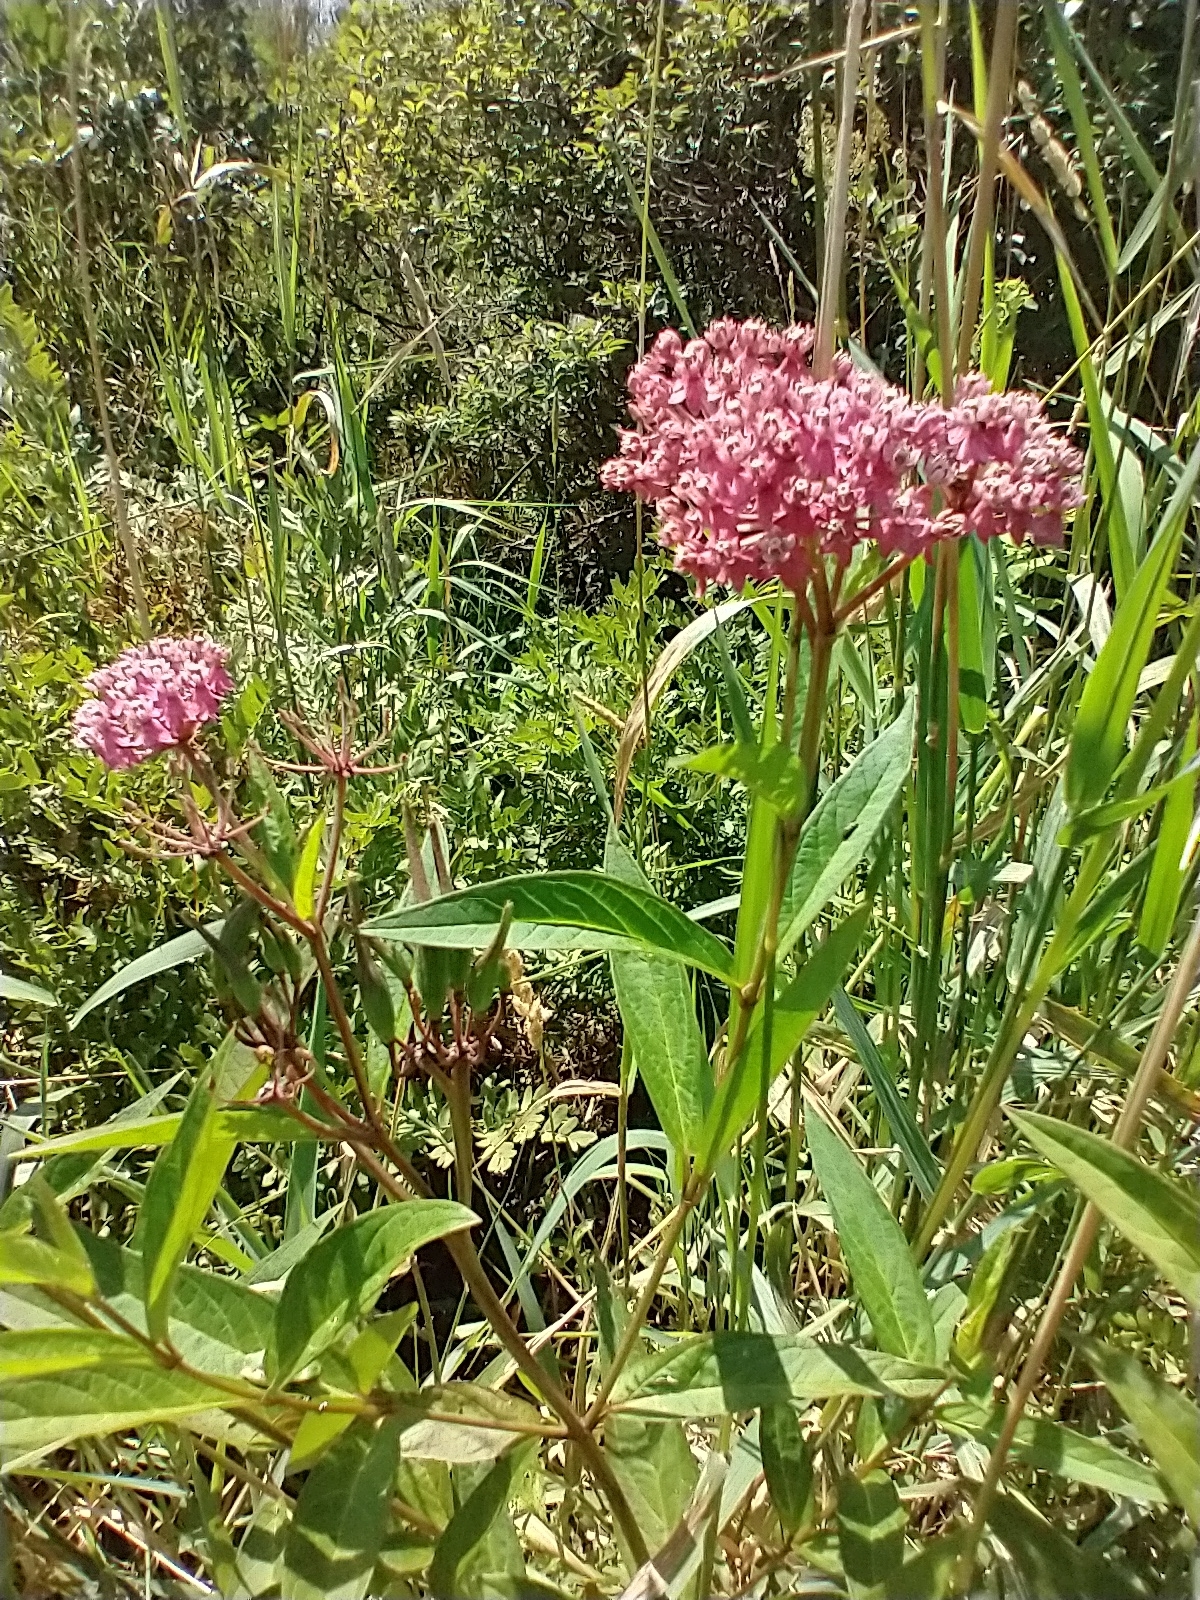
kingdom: Plantae
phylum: Tracheophyta
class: Magnoliopsida
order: Gentianales
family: Apocynaceae
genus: Asclepias
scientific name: Asclepias incarnata
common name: Swamp milkweed
